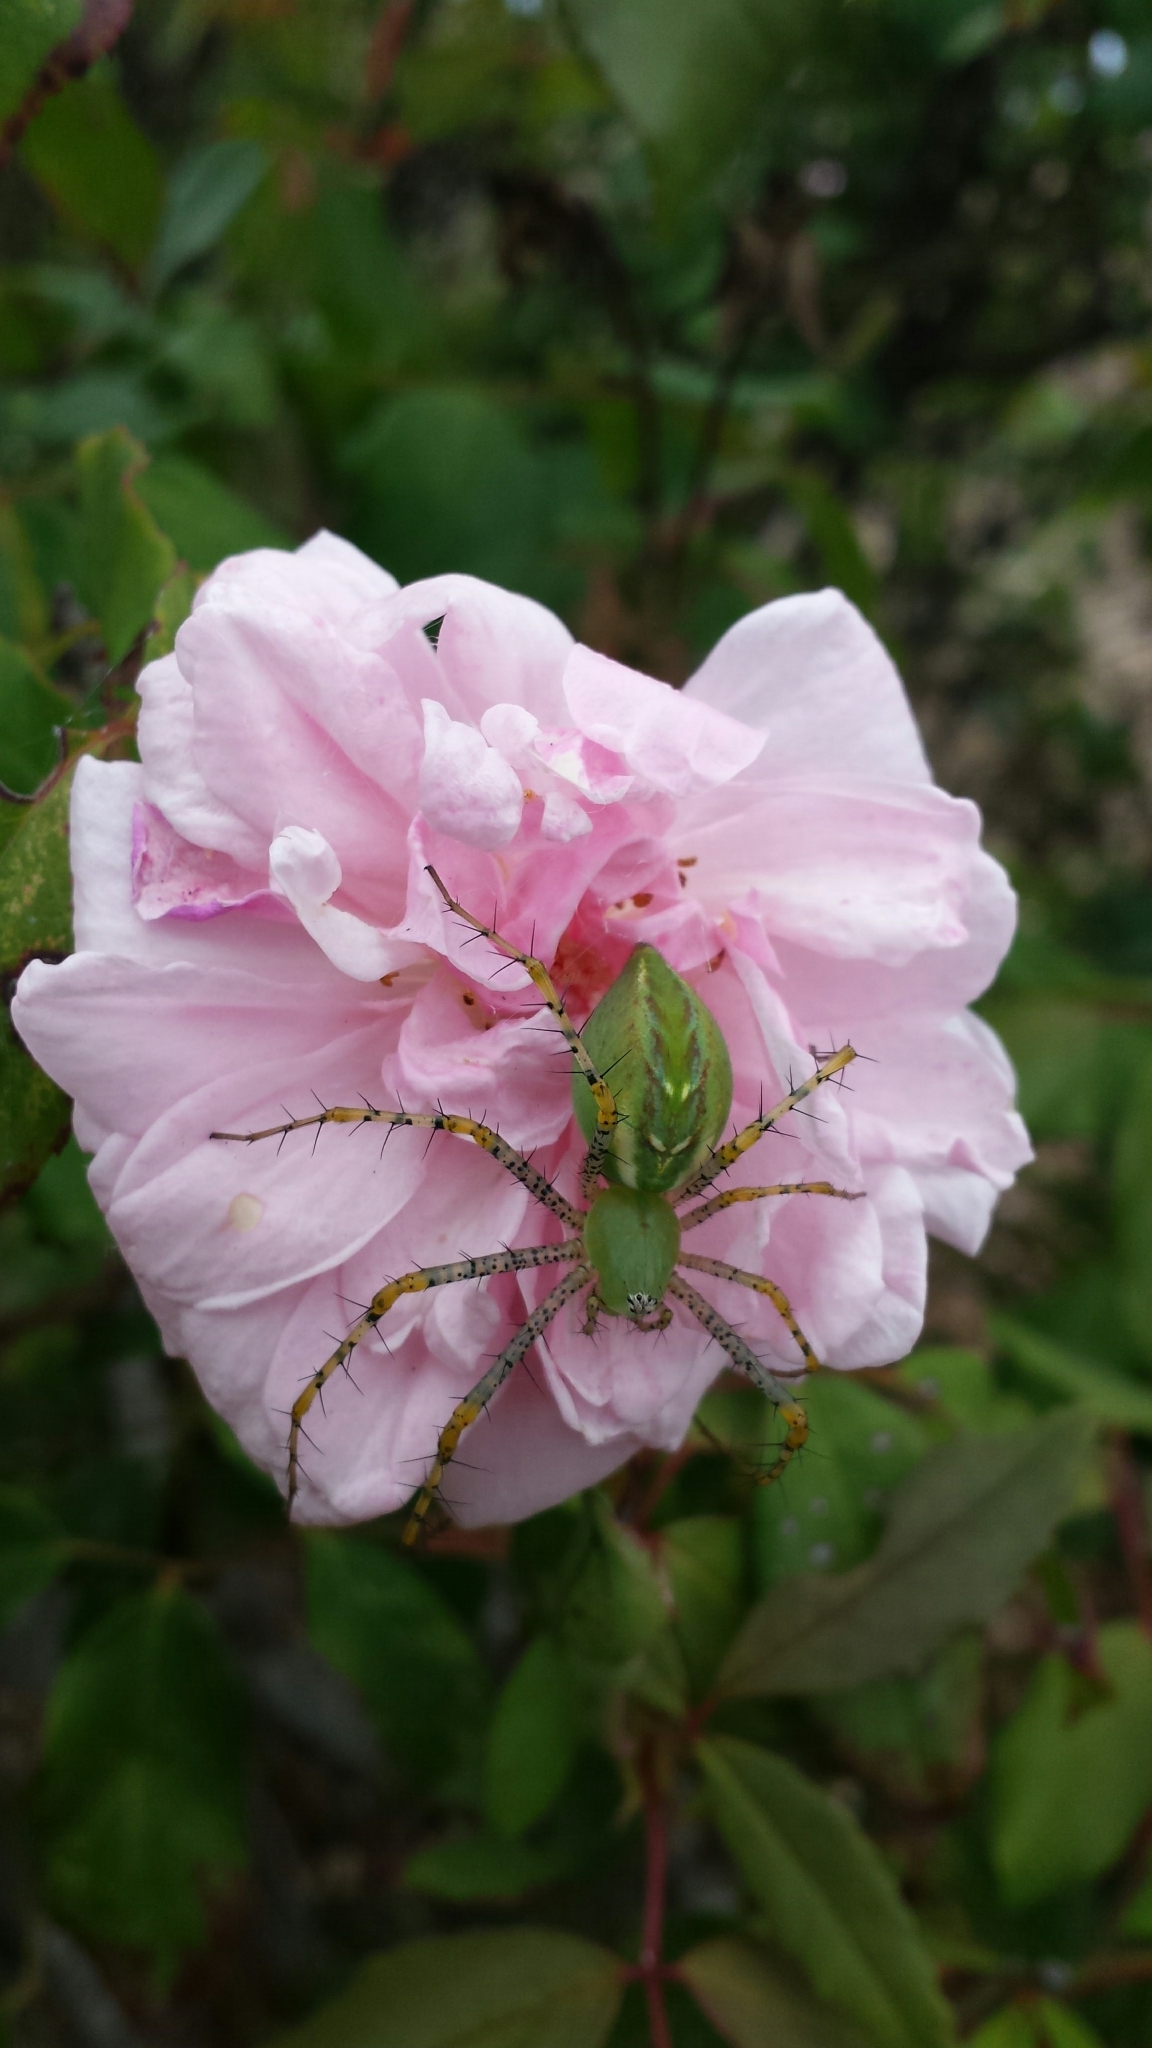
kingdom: Animalia
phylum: Arthropoda
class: Arachnida
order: Araneae
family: Oxyopidae
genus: Peucetia
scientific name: Peucetia viridans
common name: Lynx spiders
